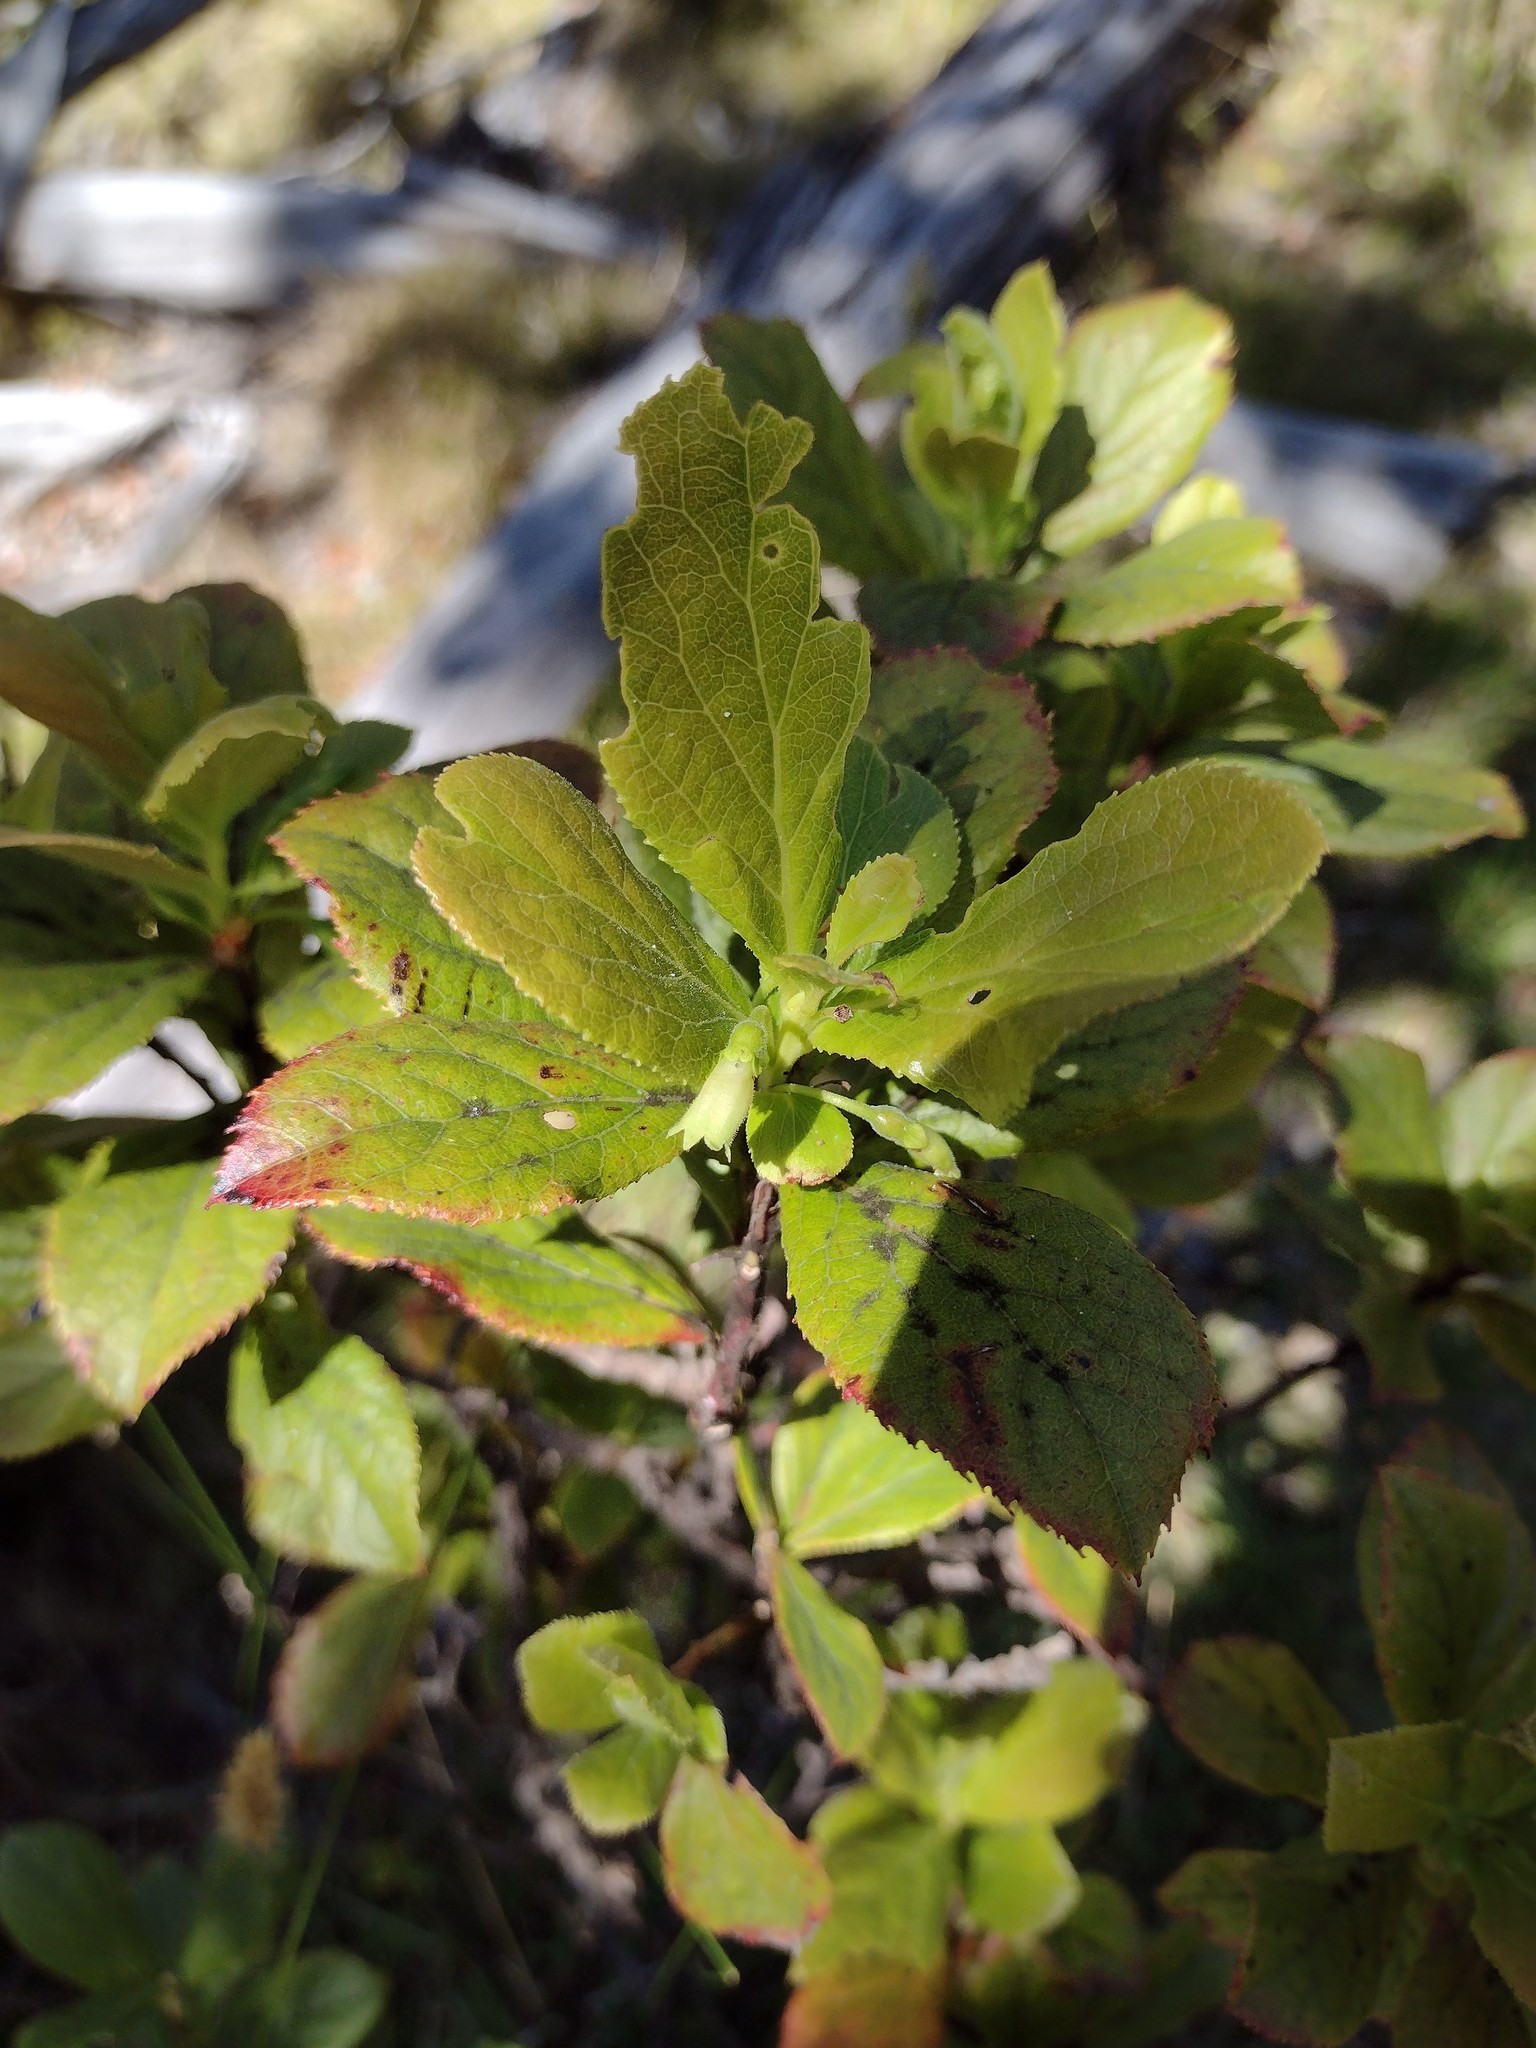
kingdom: Plantae
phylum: Tracheophyta
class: Magnoliopsida
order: Ericales
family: Ericaceae
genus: Vaccinium
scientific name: Vaccinium calycinum
